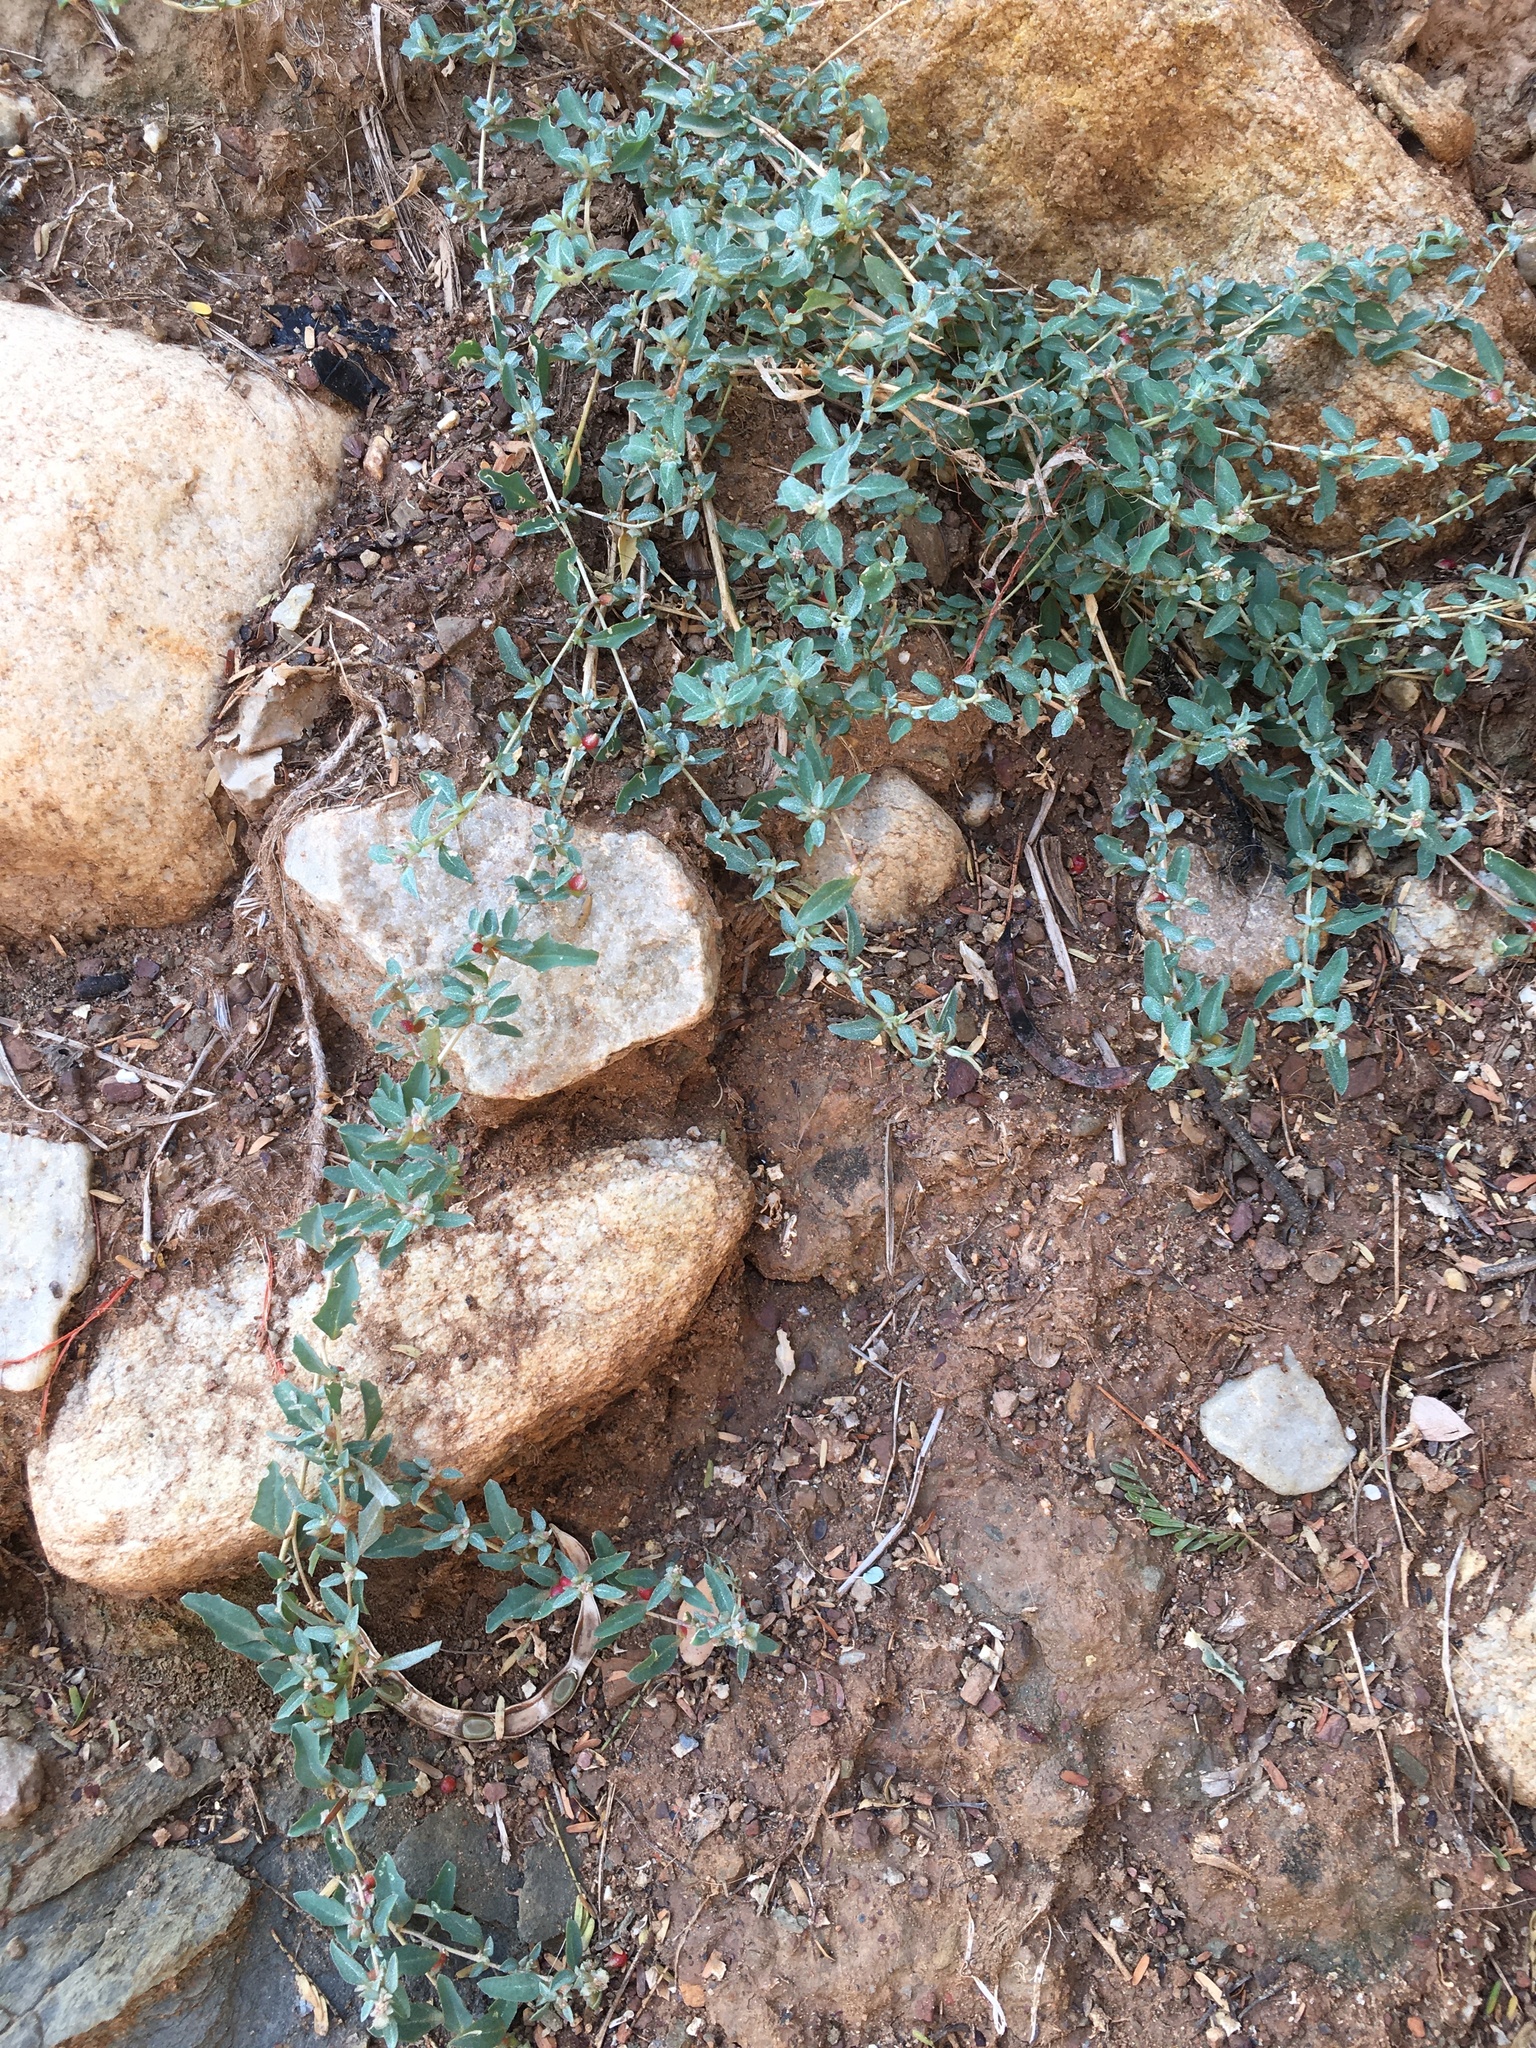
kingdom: Plantae
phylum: Tracheophyta
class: Magnoliopsida
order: Saxifragales
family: Crassulaceae
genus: Crassula
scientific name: Crassula capitella
